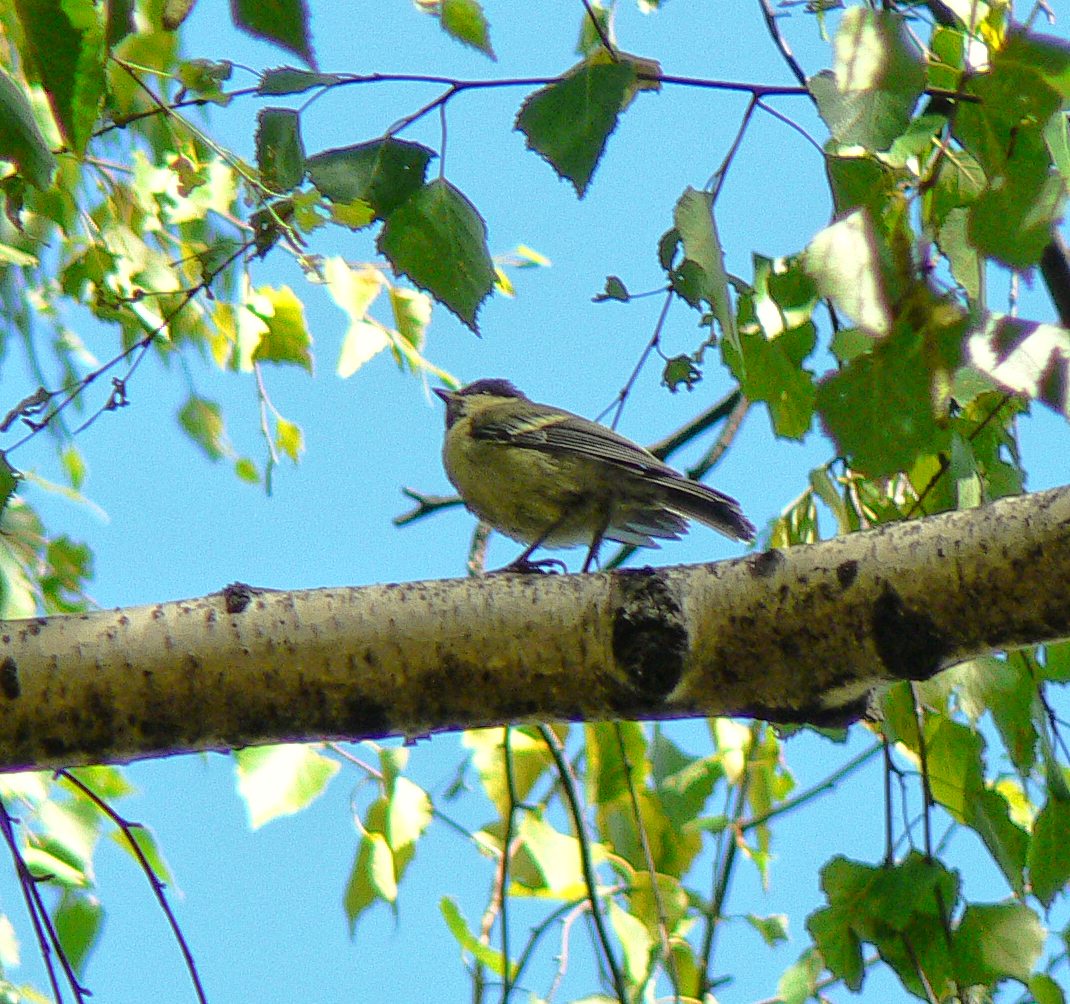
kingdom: Animalia
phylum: Chordata
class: Aves
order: Passeriformes
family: Paridae
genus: Parus
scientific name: Parus major
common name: Great tit
